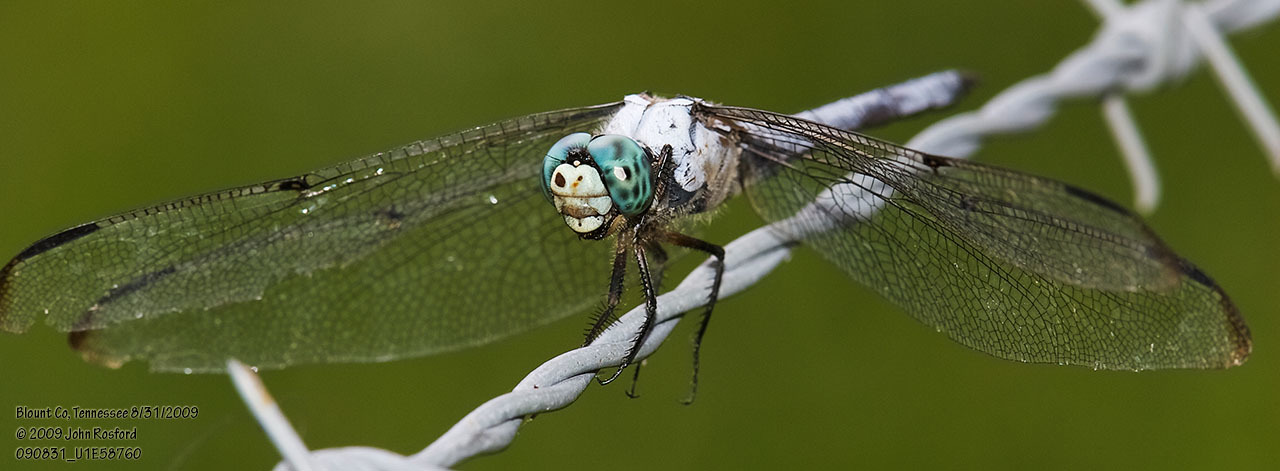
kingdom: Animalia
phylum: Arthropoda
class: Insecta
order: Odonata
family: Libellulidae
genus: Libellula
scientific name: Libellula vibrans
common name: Great blue skimmer
